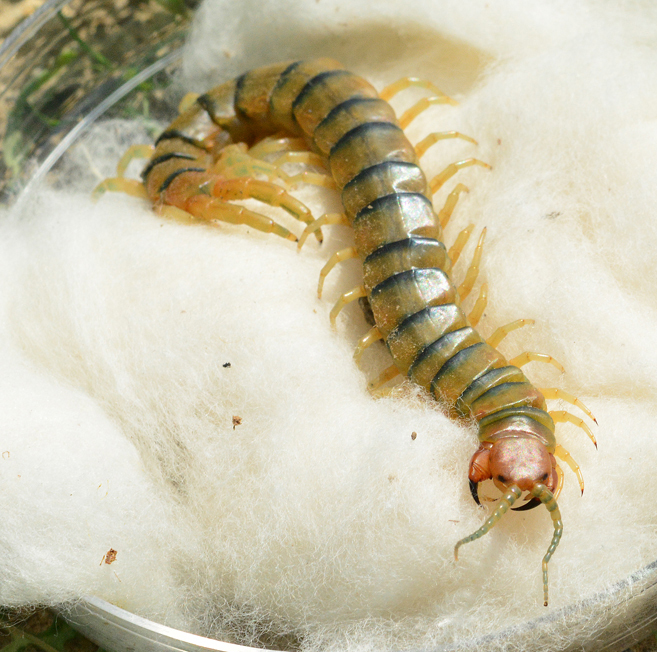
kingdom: Animalia
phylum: Arthropoda
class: Chilopoda
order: Scolopendromorpha
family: Scolopendridae
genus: Scolopendra
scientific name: Scolopendra polymorpha
